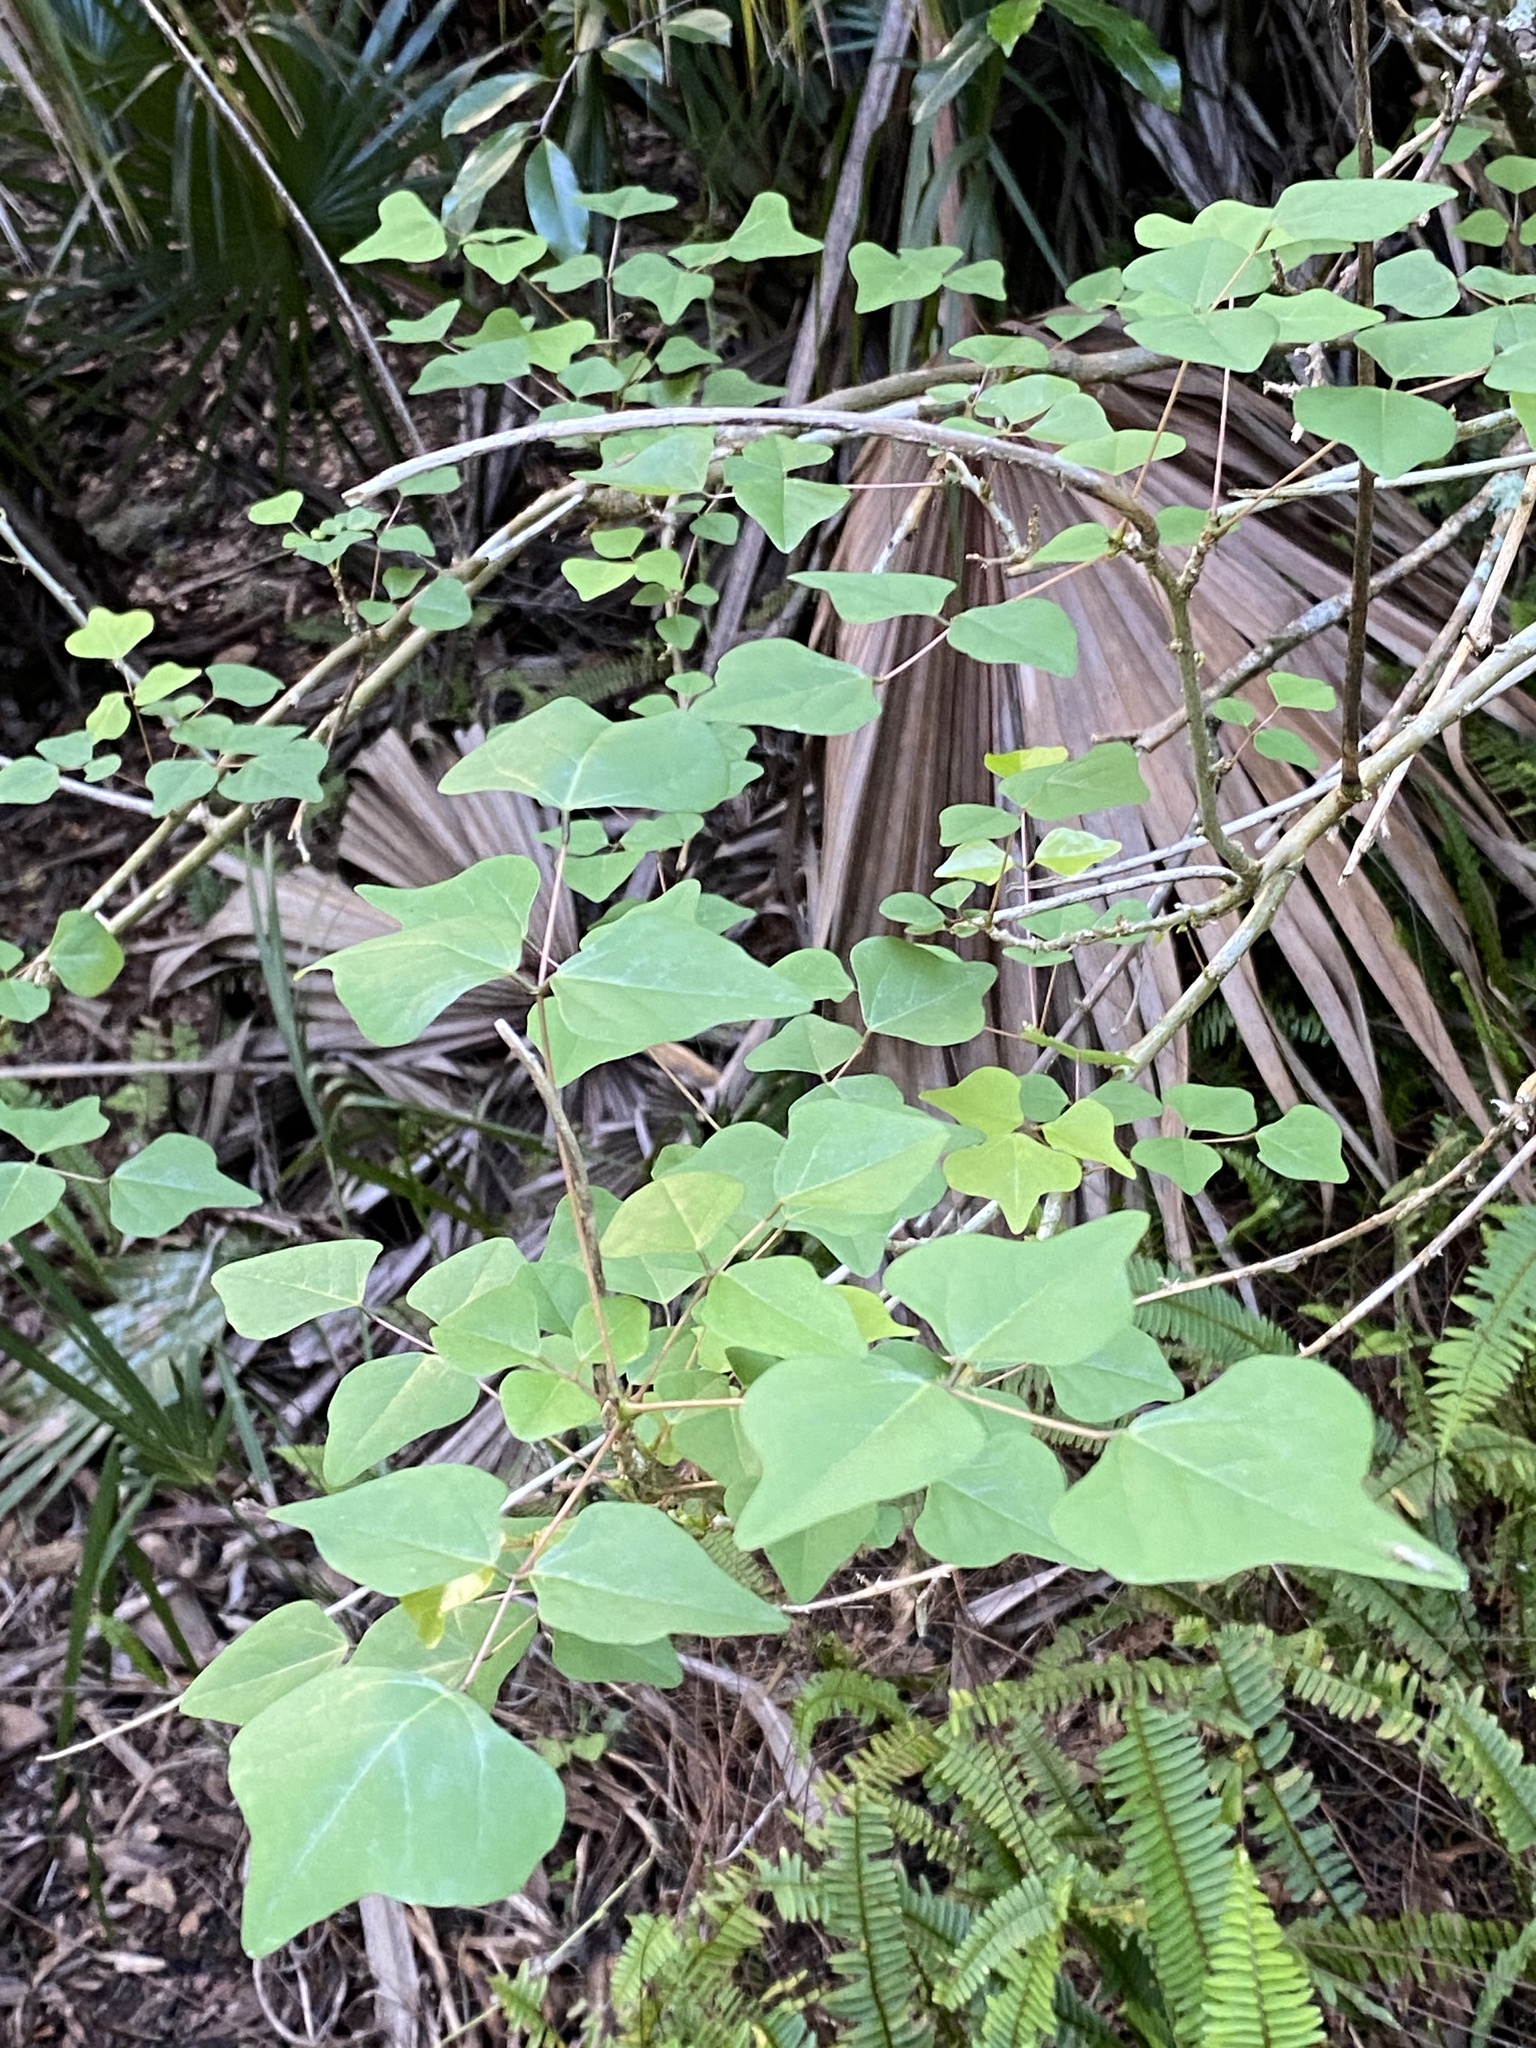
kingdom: Plantae
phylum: Tracheophyta
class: Magnoliopsida
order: Fabales
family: Fabaceae
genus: Erythrina
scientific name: Erythrina herbacea
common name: Coral-bean
